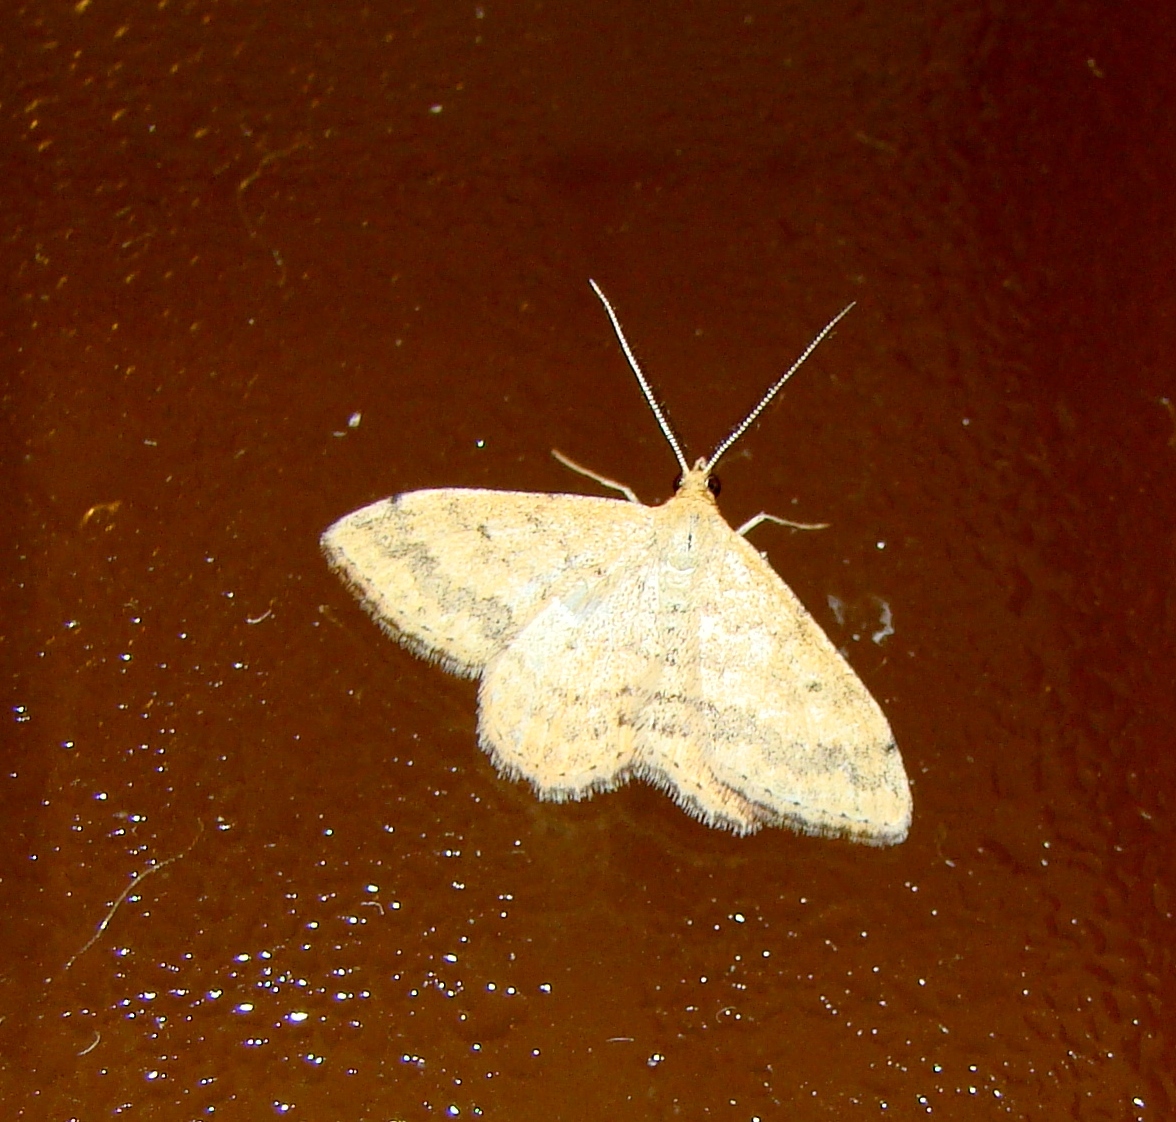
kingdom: Animalia
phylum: Arthropoda
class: Insecta
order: Lepidoptera
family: Geometridae
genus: Scopula
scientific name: Scopula rubraria
